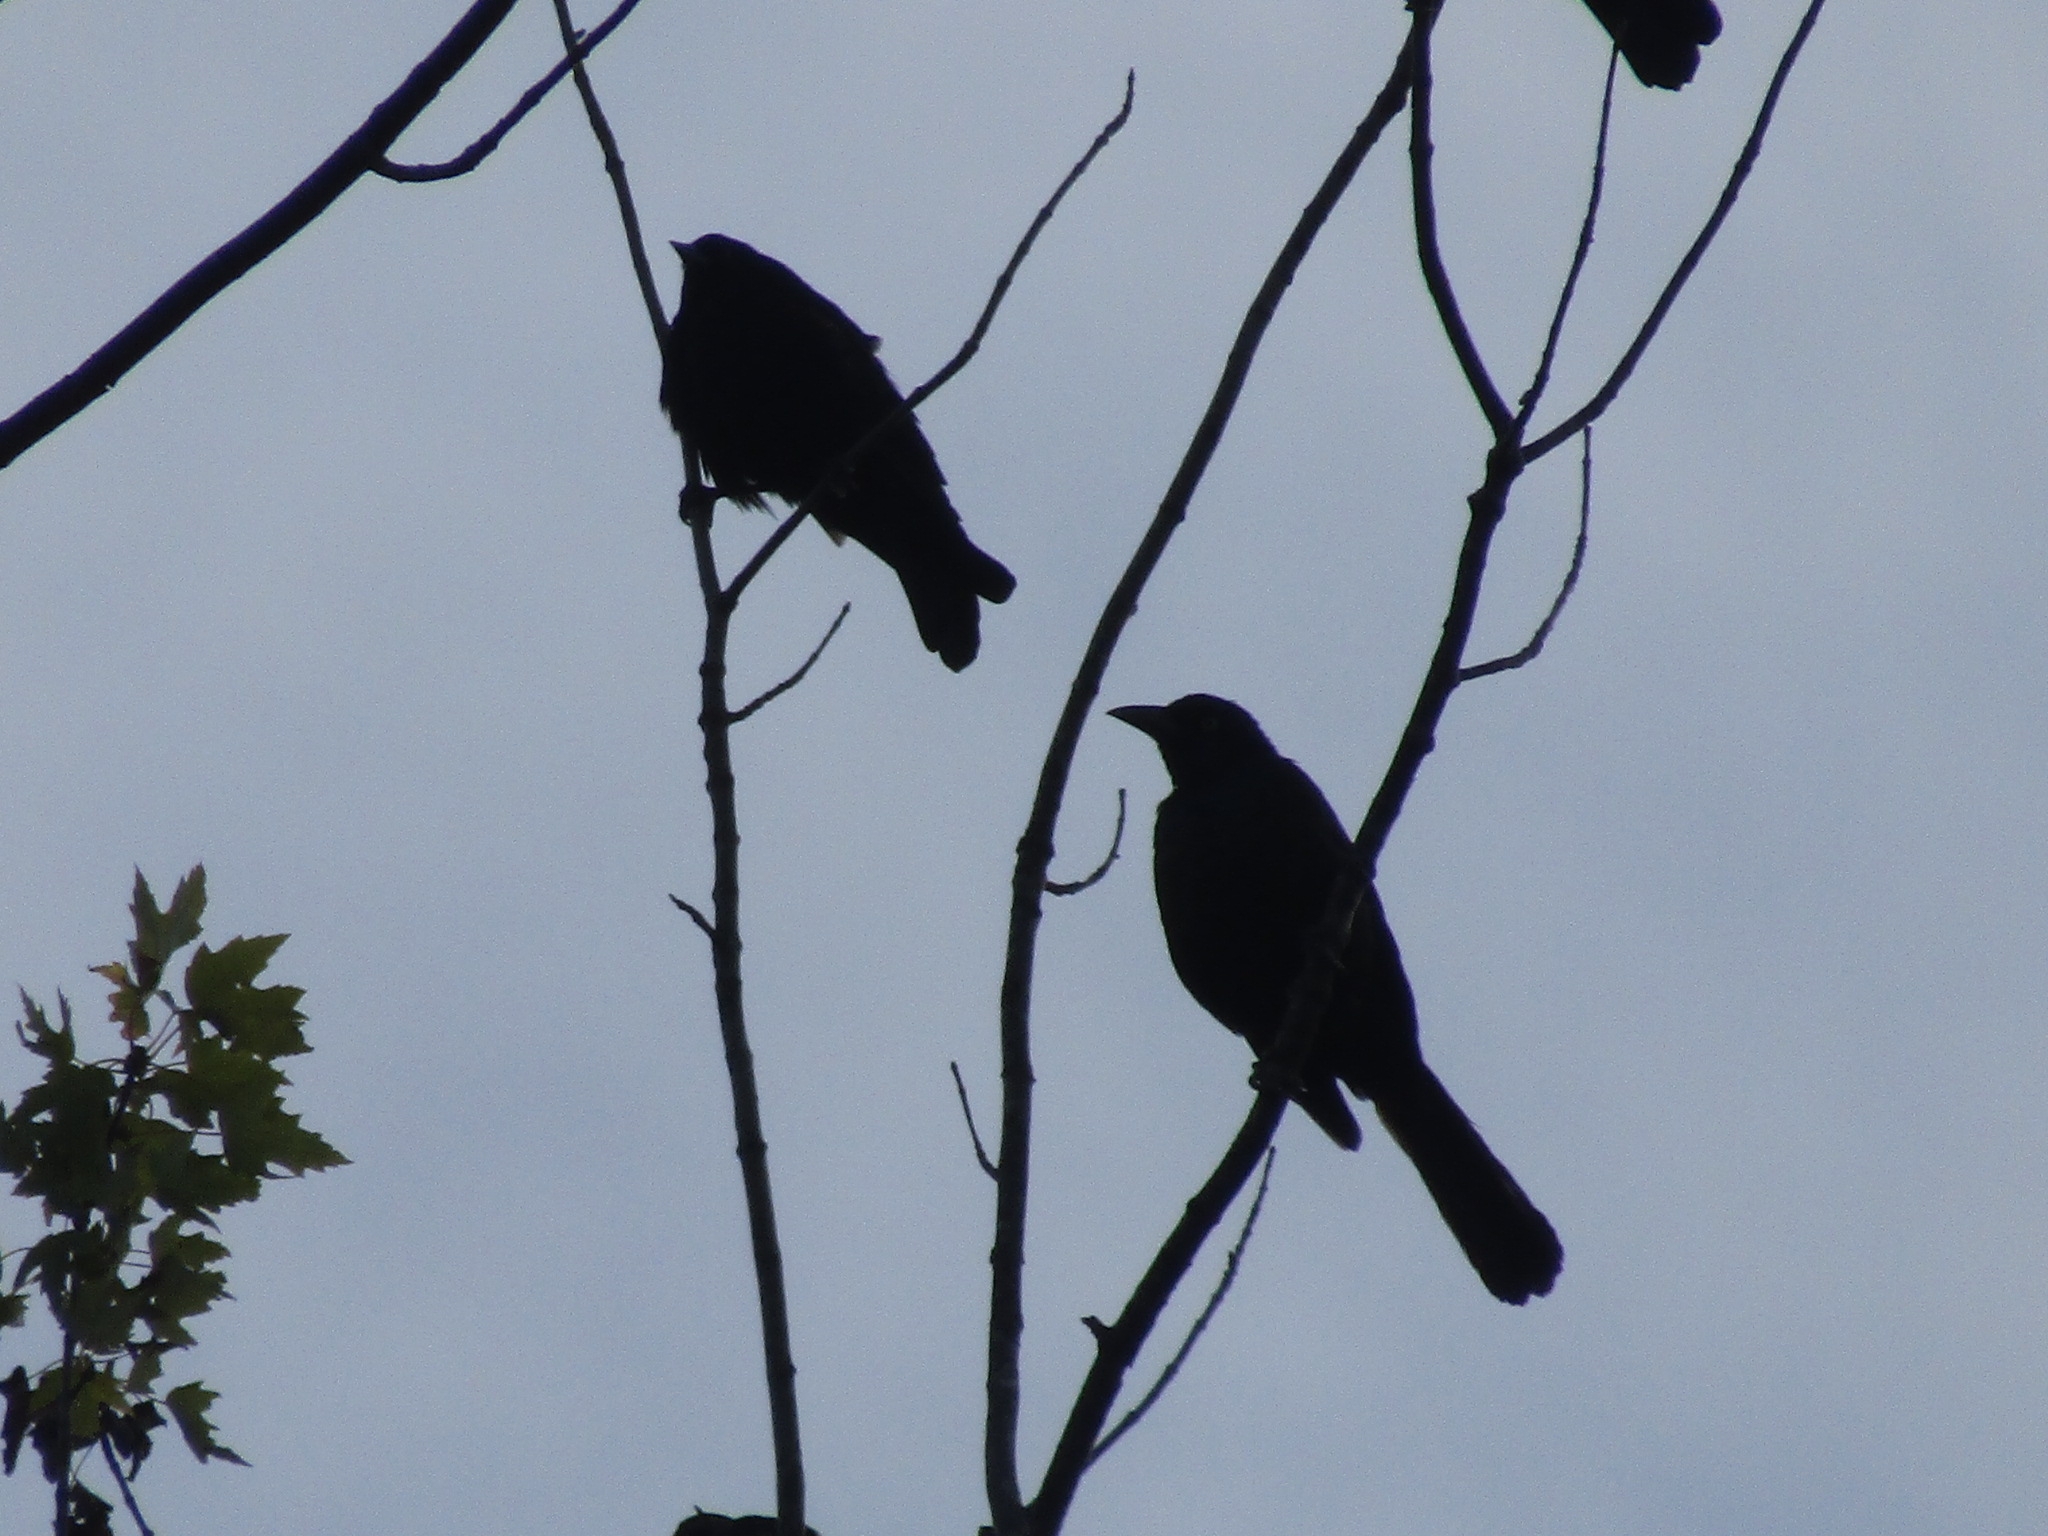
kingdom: Animalia
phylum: Chordata
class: Aves
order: Passeriformes
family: Icteridae
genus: Quiscalus
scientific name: Quiscalus quiscula
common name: Common grackle
